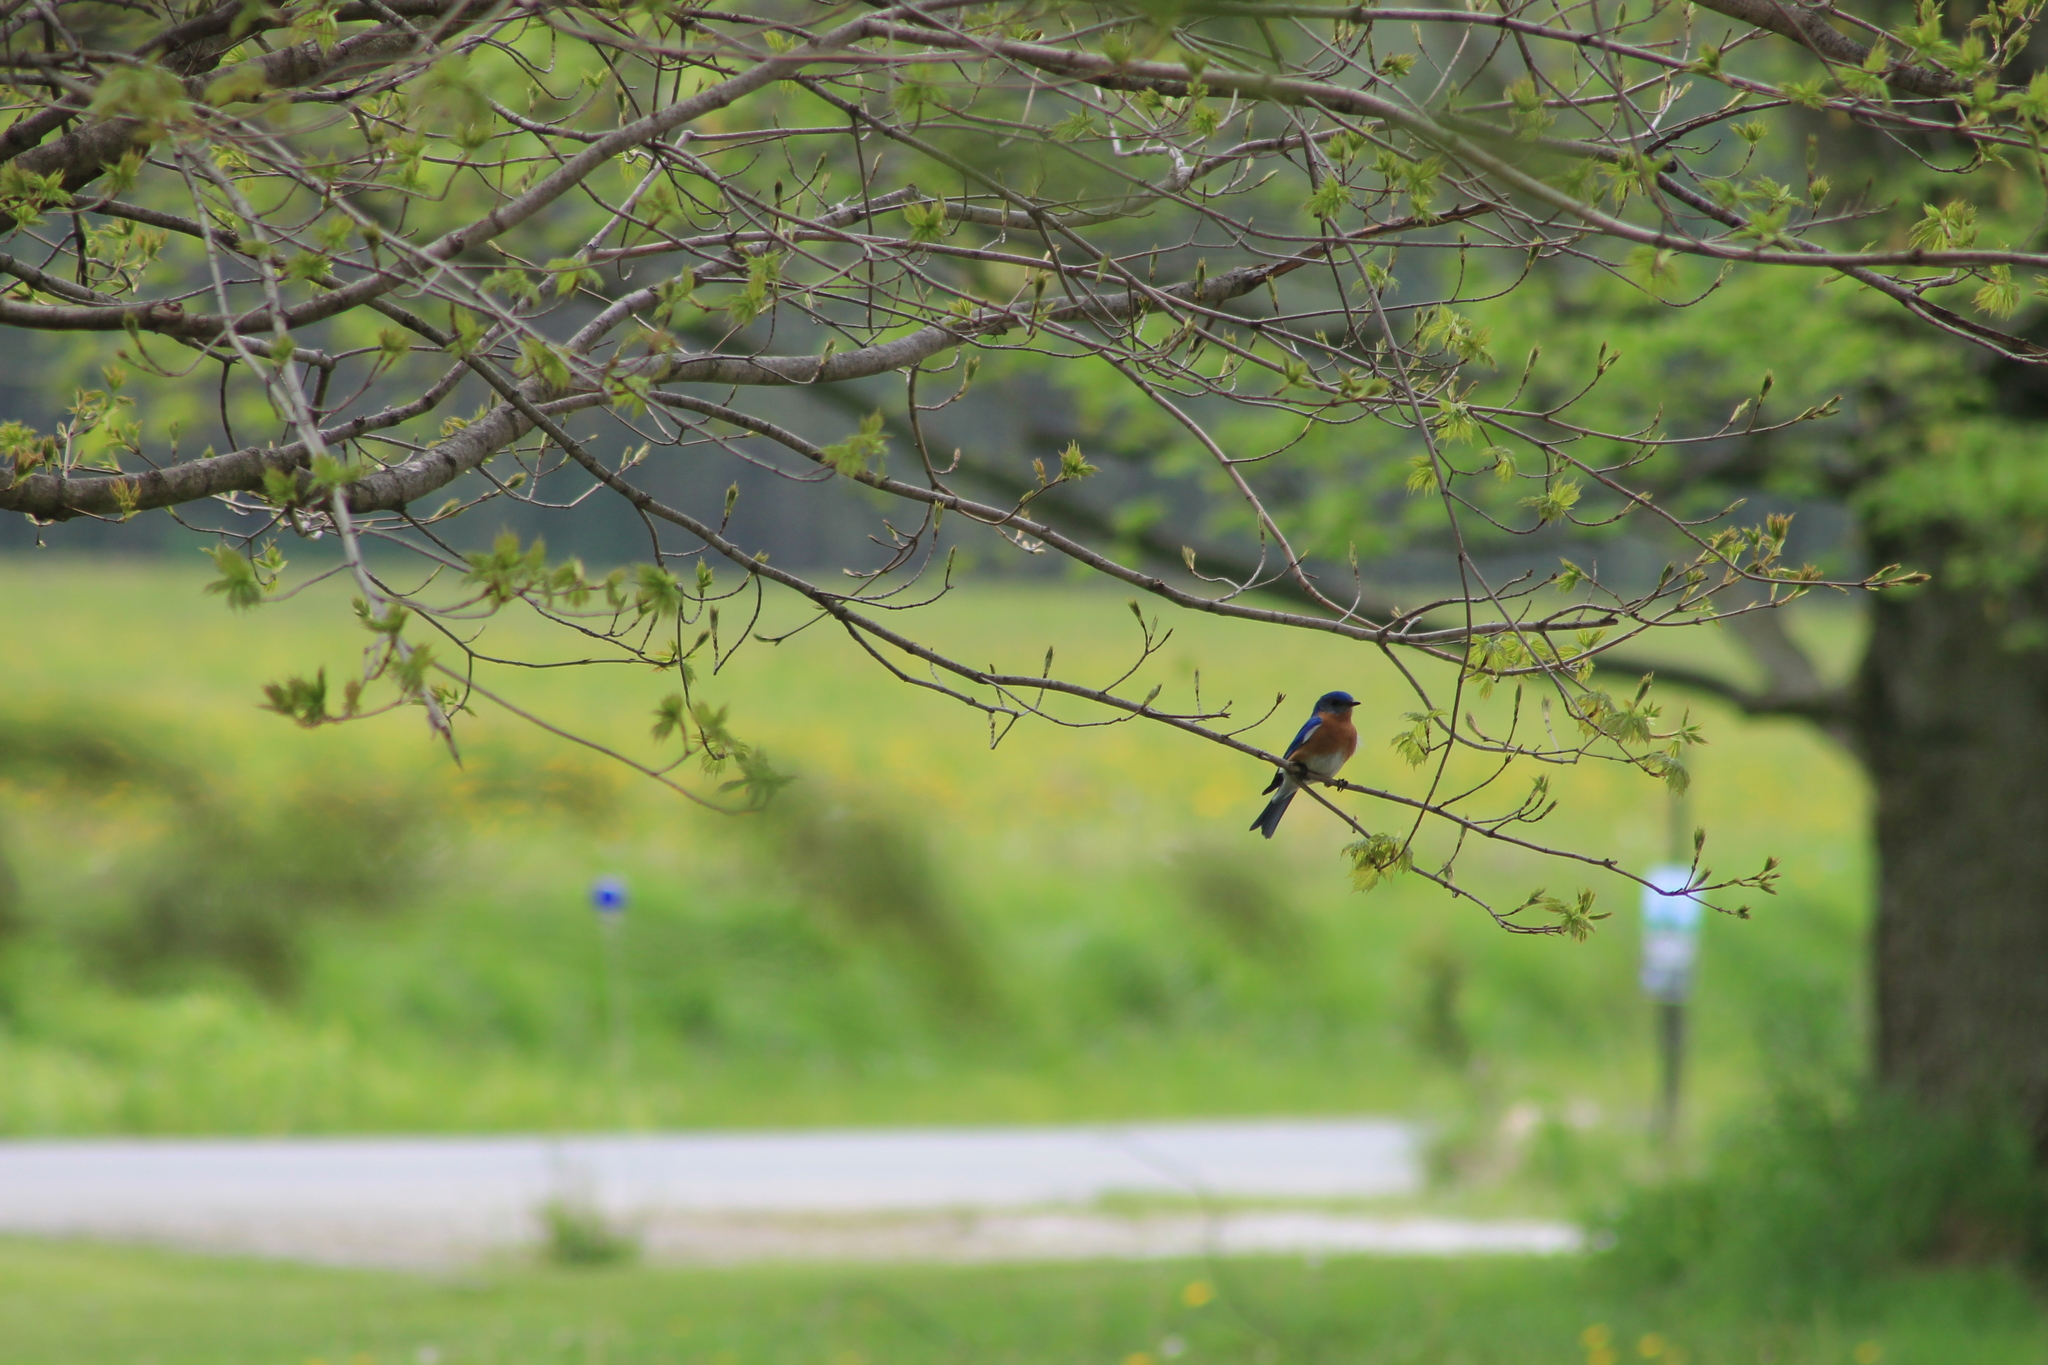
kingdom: Animalia
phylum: Chordata
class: Aves
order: Passeriformes
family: Turdidae
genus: Sialia
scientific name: Sialia sialis
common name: Eastern bluebird
